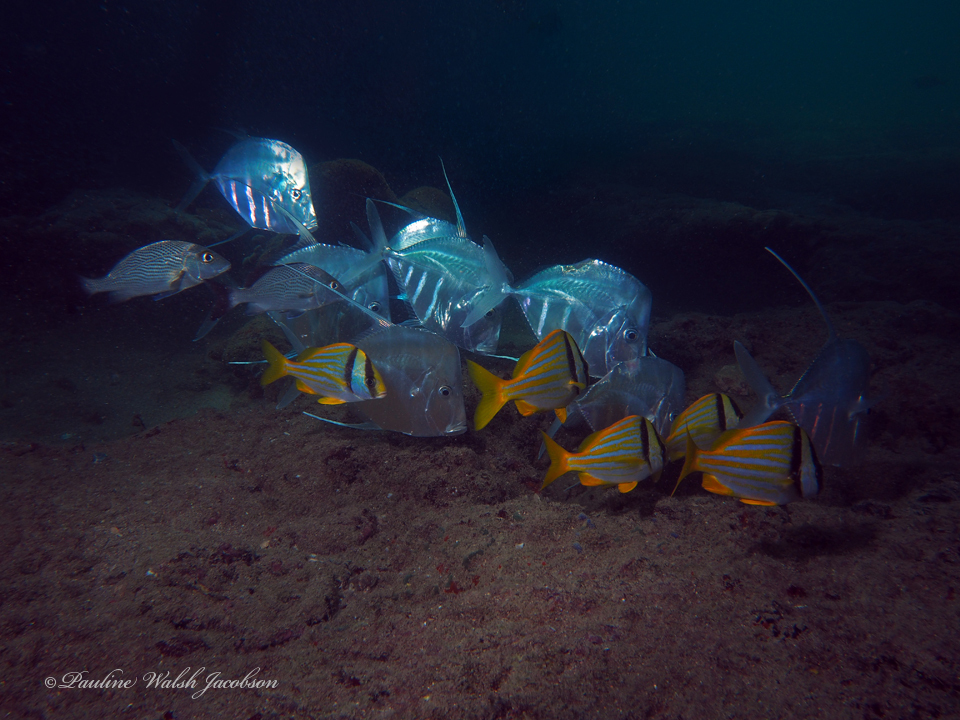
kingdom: Animalia
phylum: Chordata
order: Perciformes
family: Carangidae
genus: Selene
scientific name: Selene vomer
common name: Lookdown
